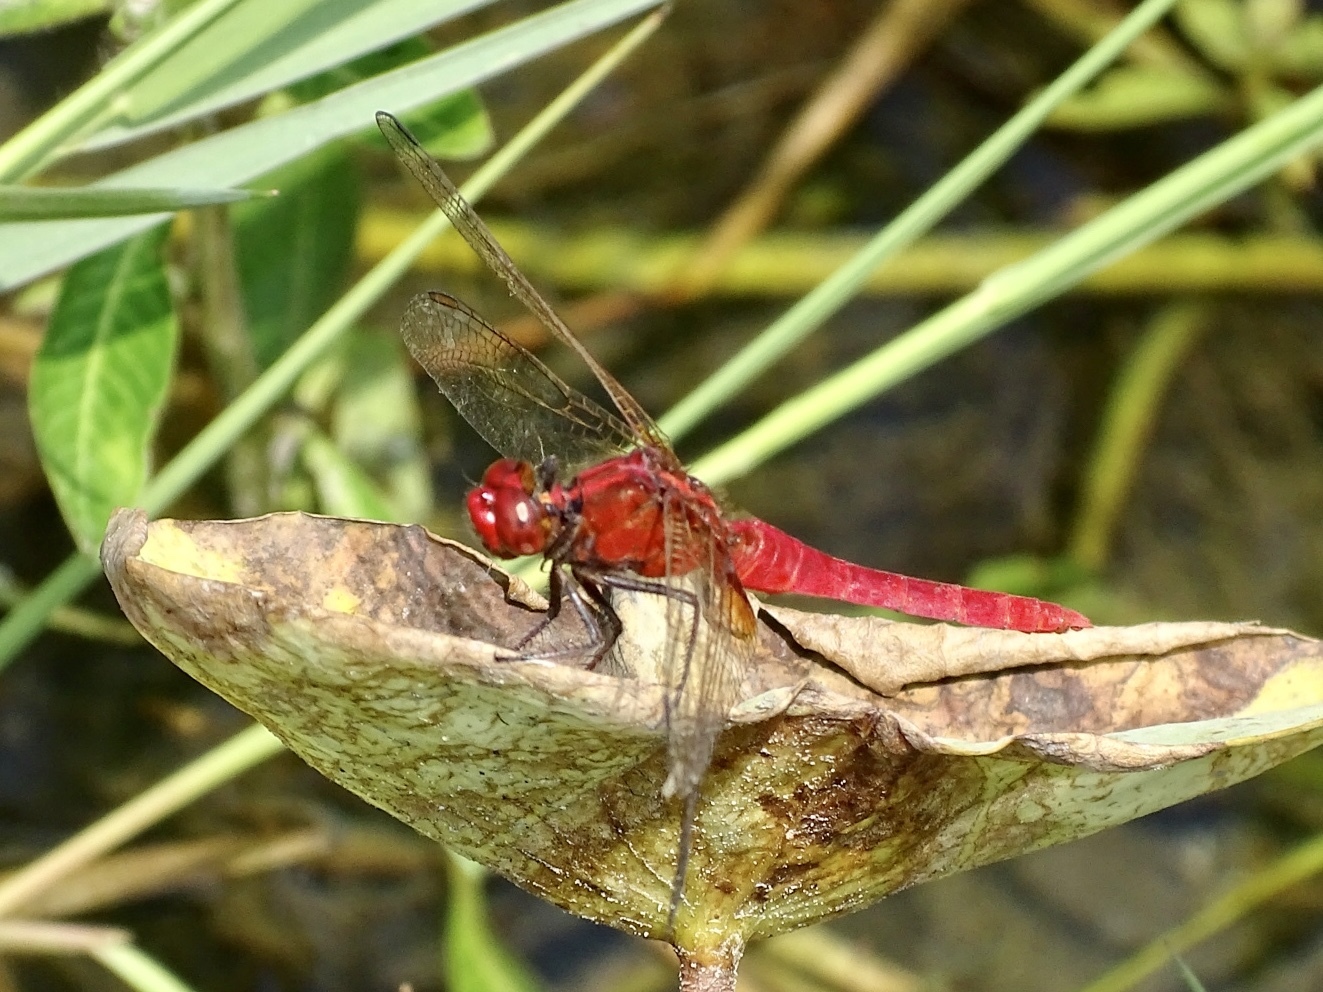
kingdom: Animalia
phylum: Arthropoda
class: Insecta
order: Odonata
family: Libellulidae
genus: Rhodothemis
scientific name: Rhodothemis rufa
